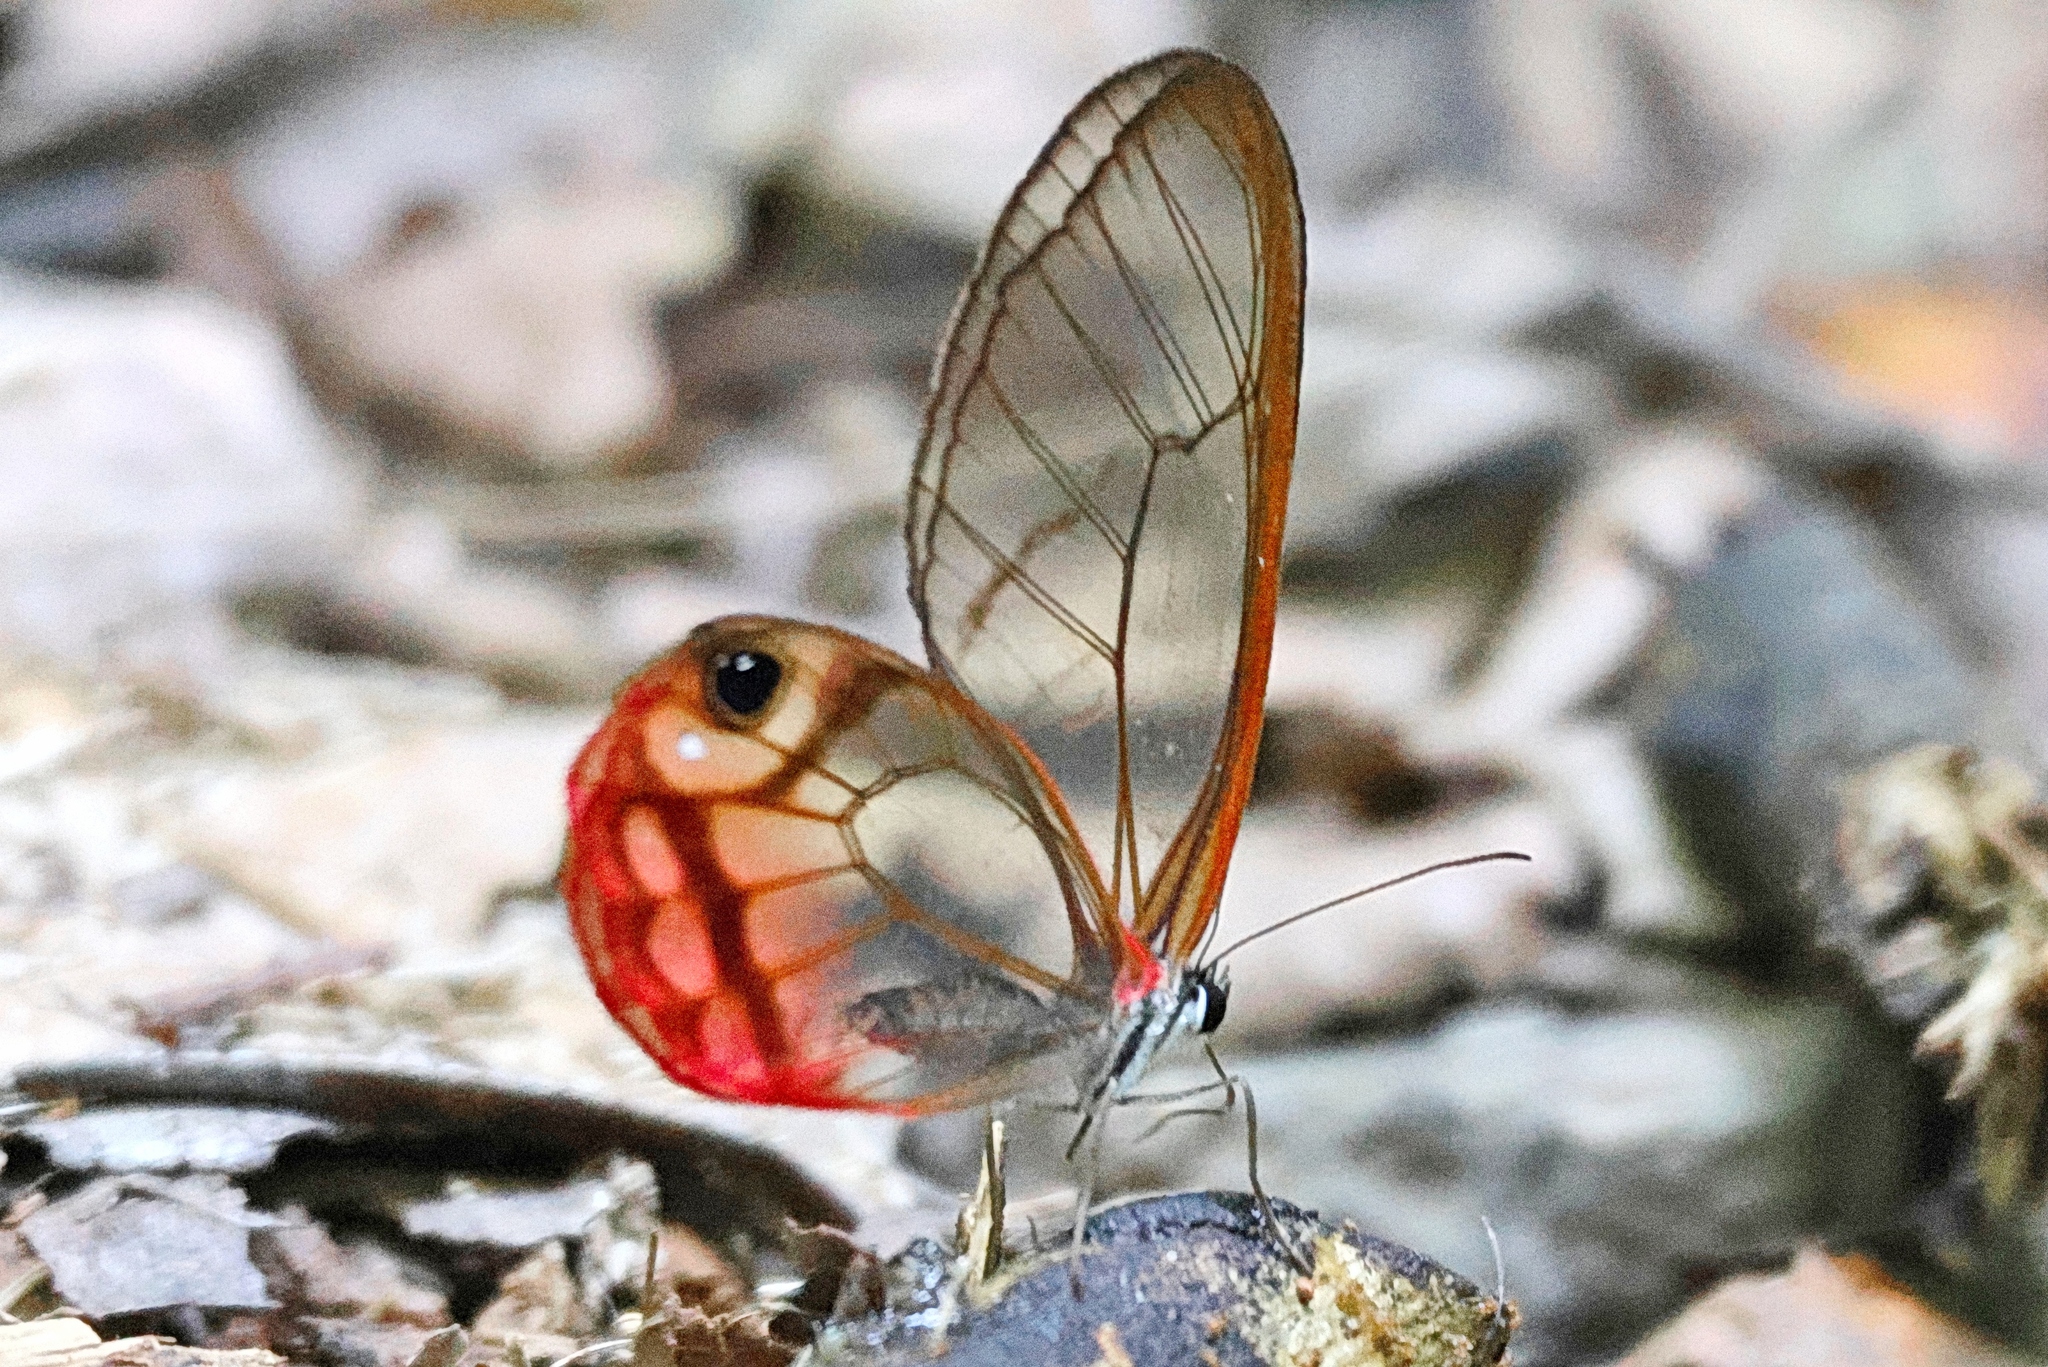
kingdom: Animalia
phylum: Arthropoda
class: Insecta
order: Lepidoptera
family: Nymphalidae
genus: Cithaerias
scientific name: Cithaerias pireta
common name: Rusted clearwing-satyr
